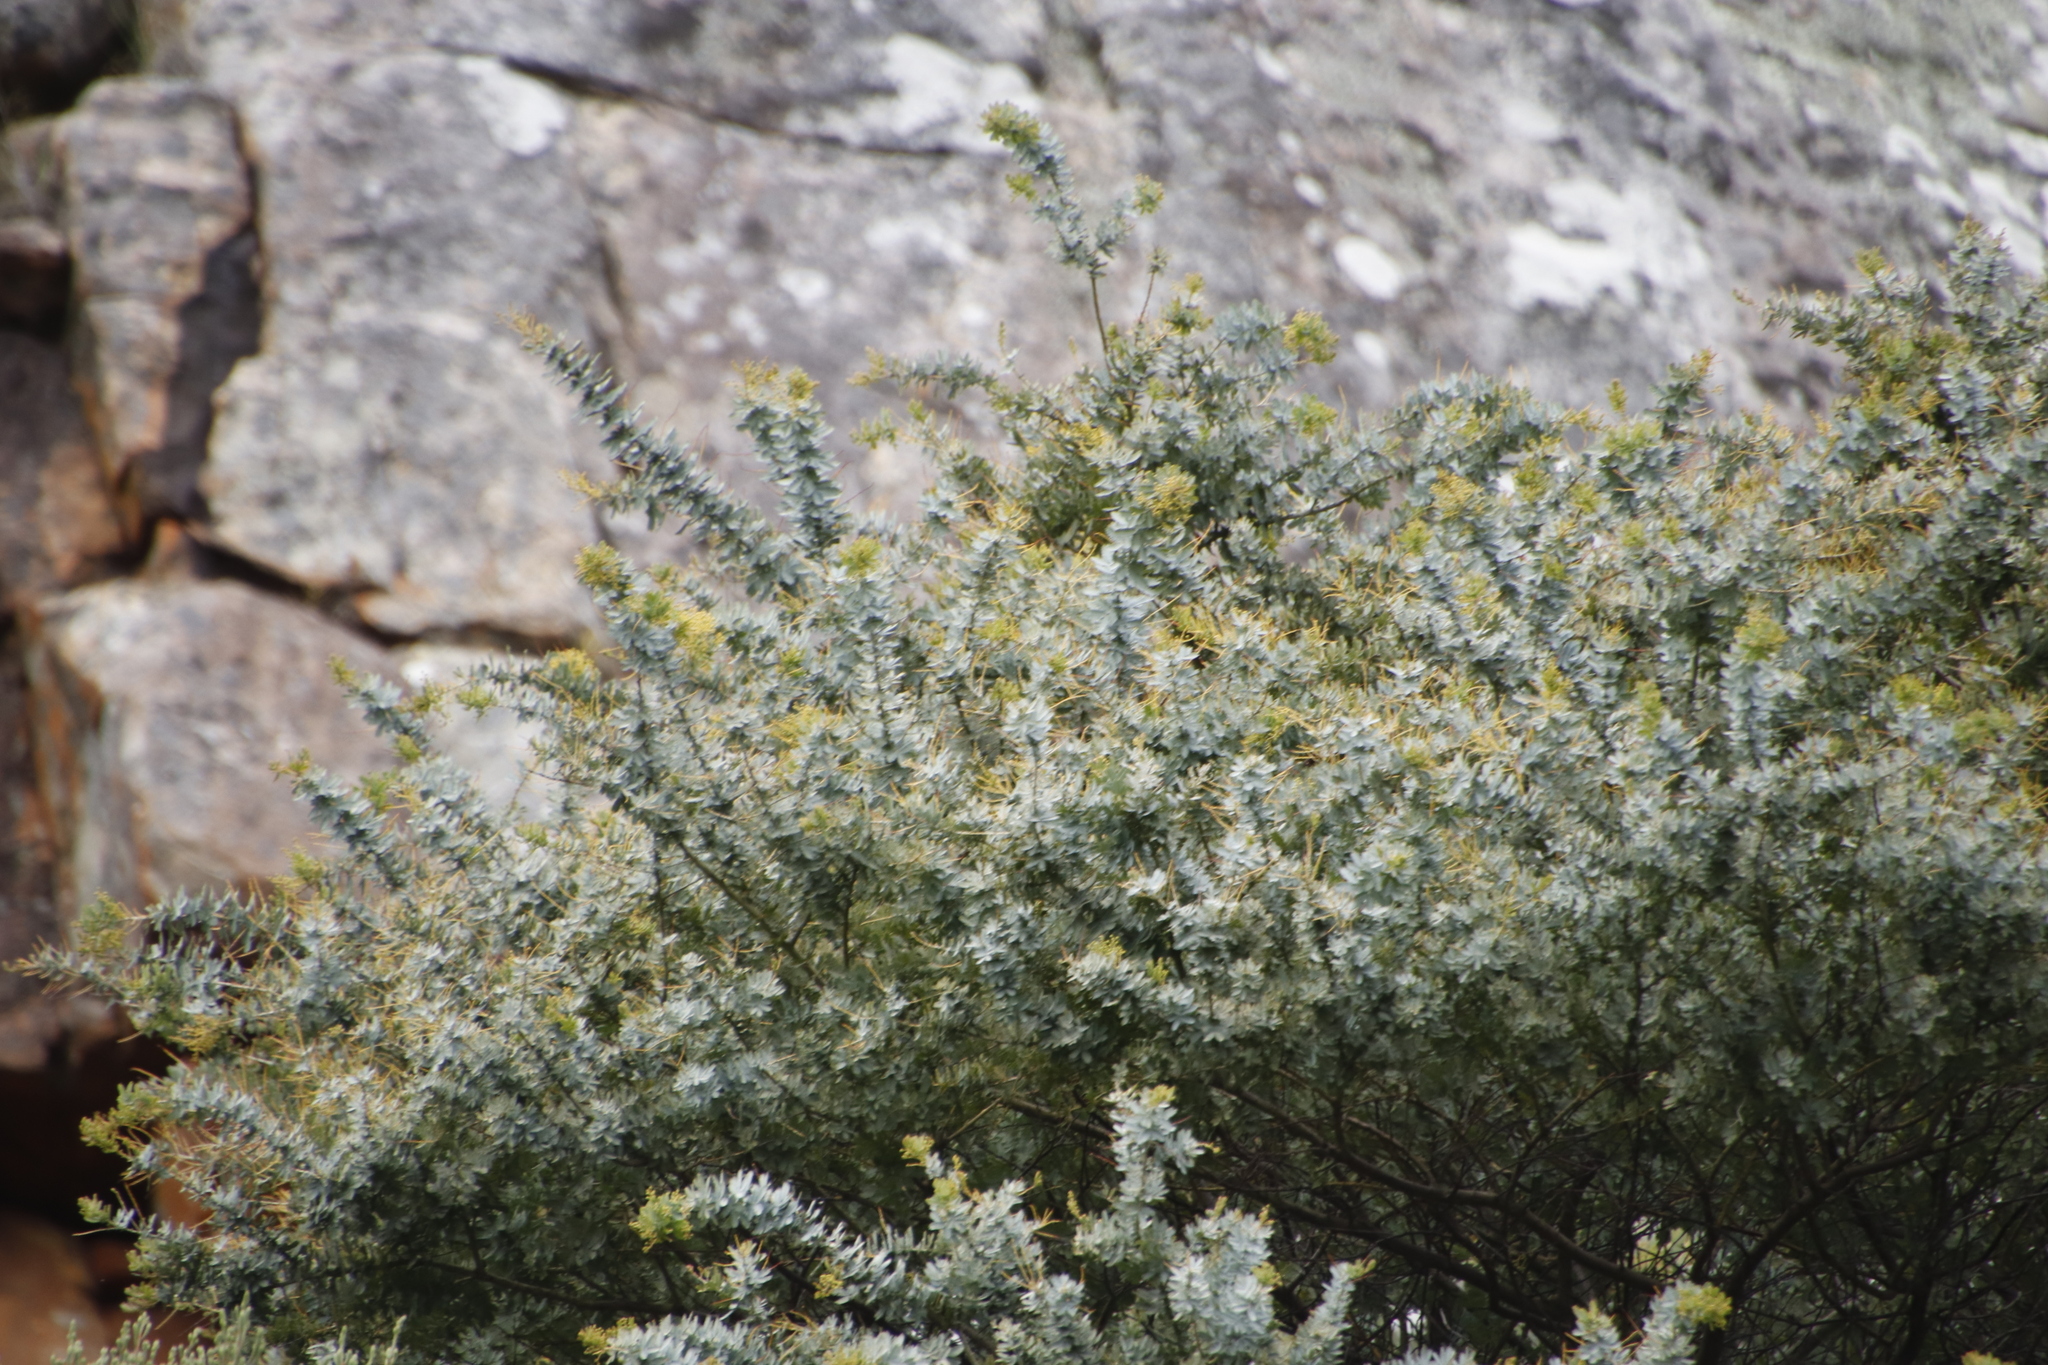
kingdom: Plantae
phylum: Tracheophyta
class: Magnoliopsida
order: Fabales
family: Fabaceae
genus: Acacia
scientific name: Acacia baileyana
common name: Cootamundra wattle
